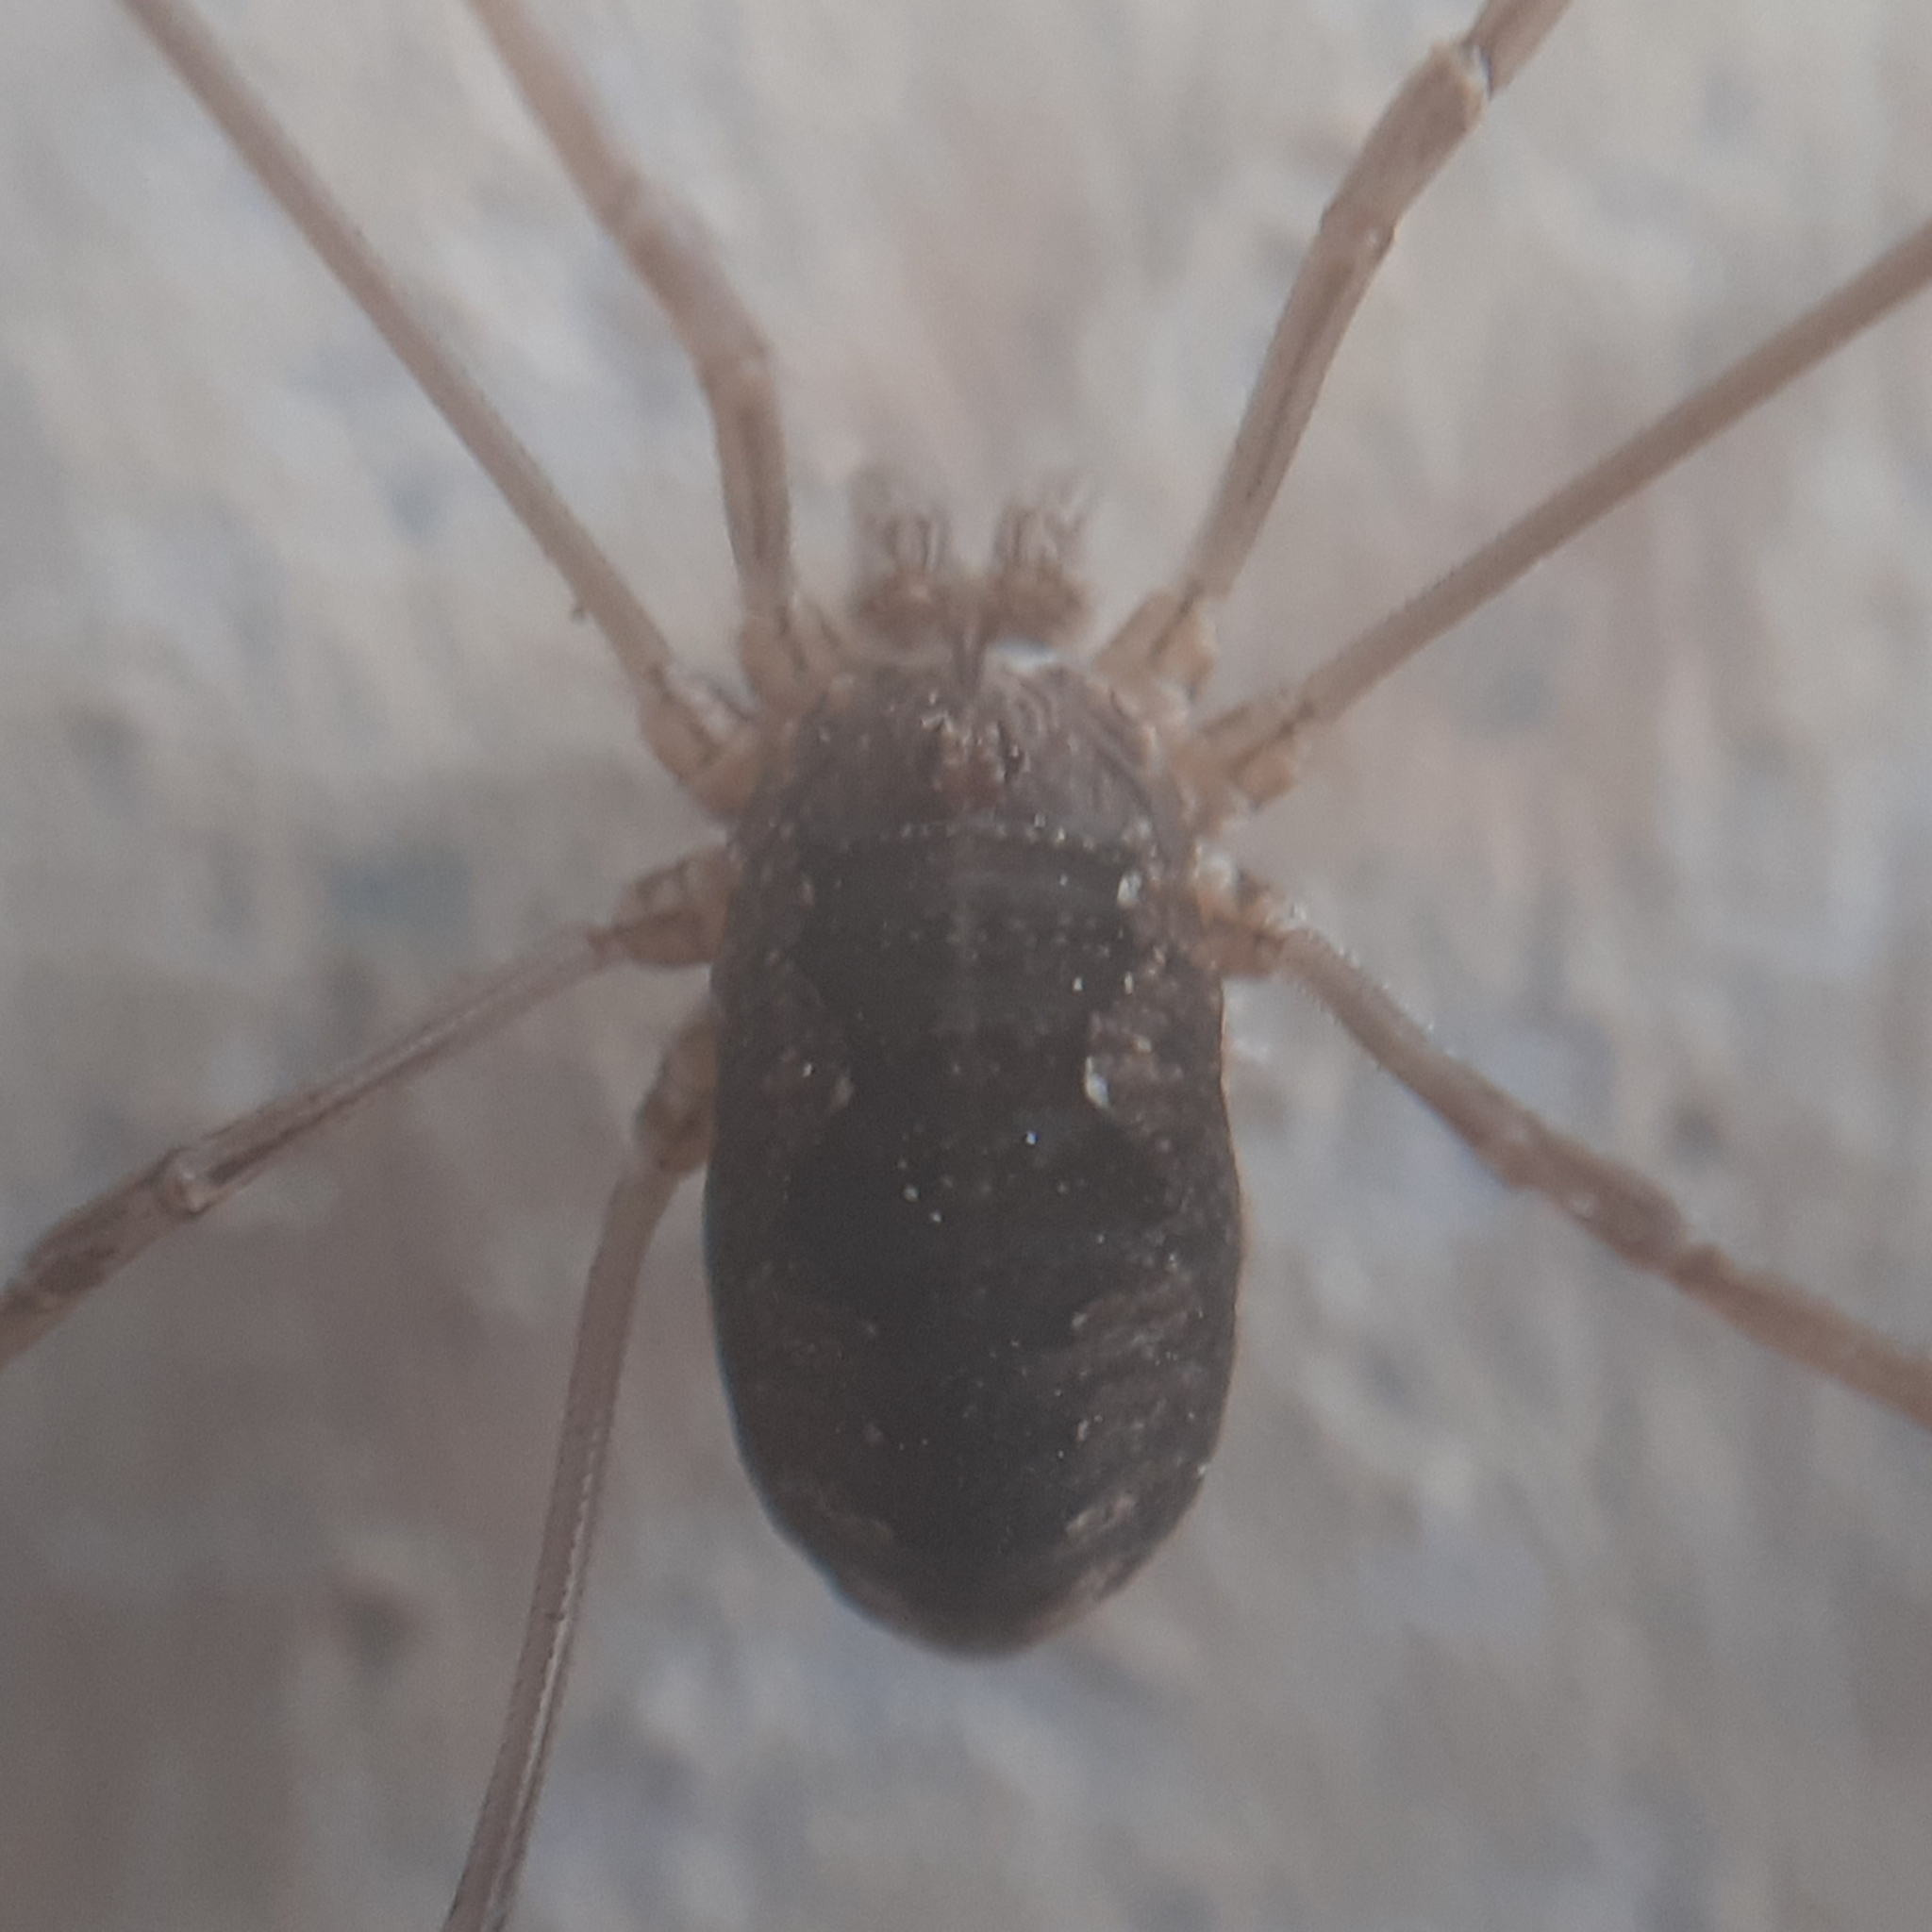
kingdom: Animalia
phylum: Arthropoda
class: Arachnida
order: Opiliones
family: Phalangiidae
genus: Phalangium
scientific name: Phalangium opilio
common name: Daddy longleg
